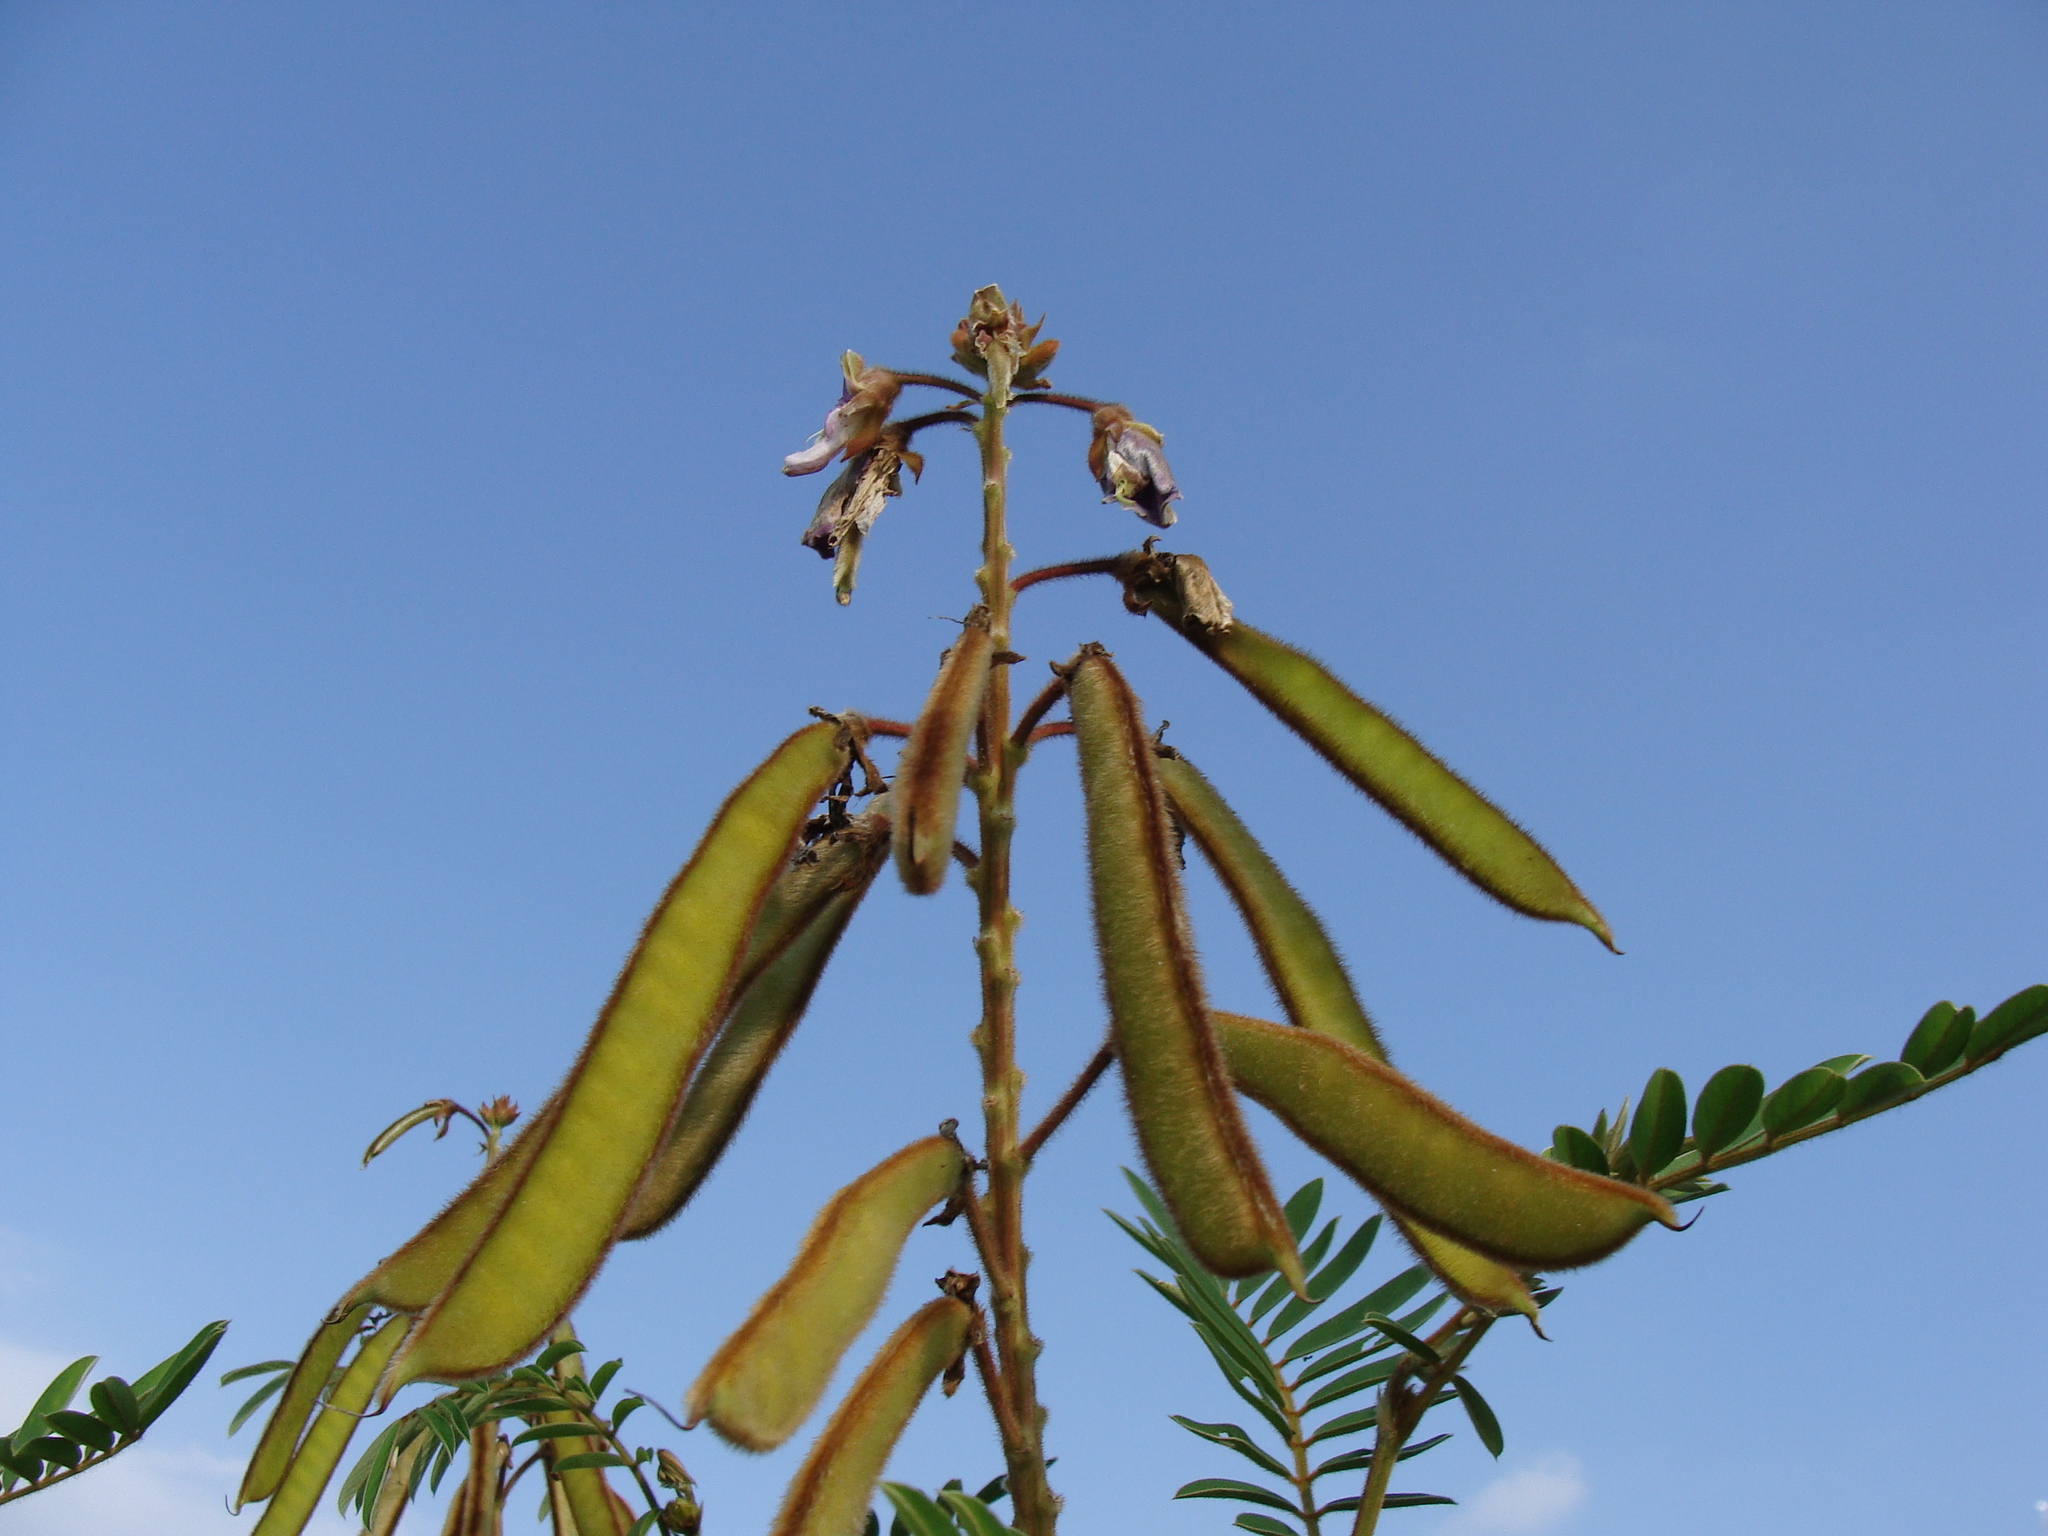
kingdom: Plantae
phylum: Tracheophyta
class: Magnoliopsida
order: Fabales
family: Fabaceae
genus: Tephrosia
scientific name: Tephrosia vogelii
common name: Vogel tephrosia
